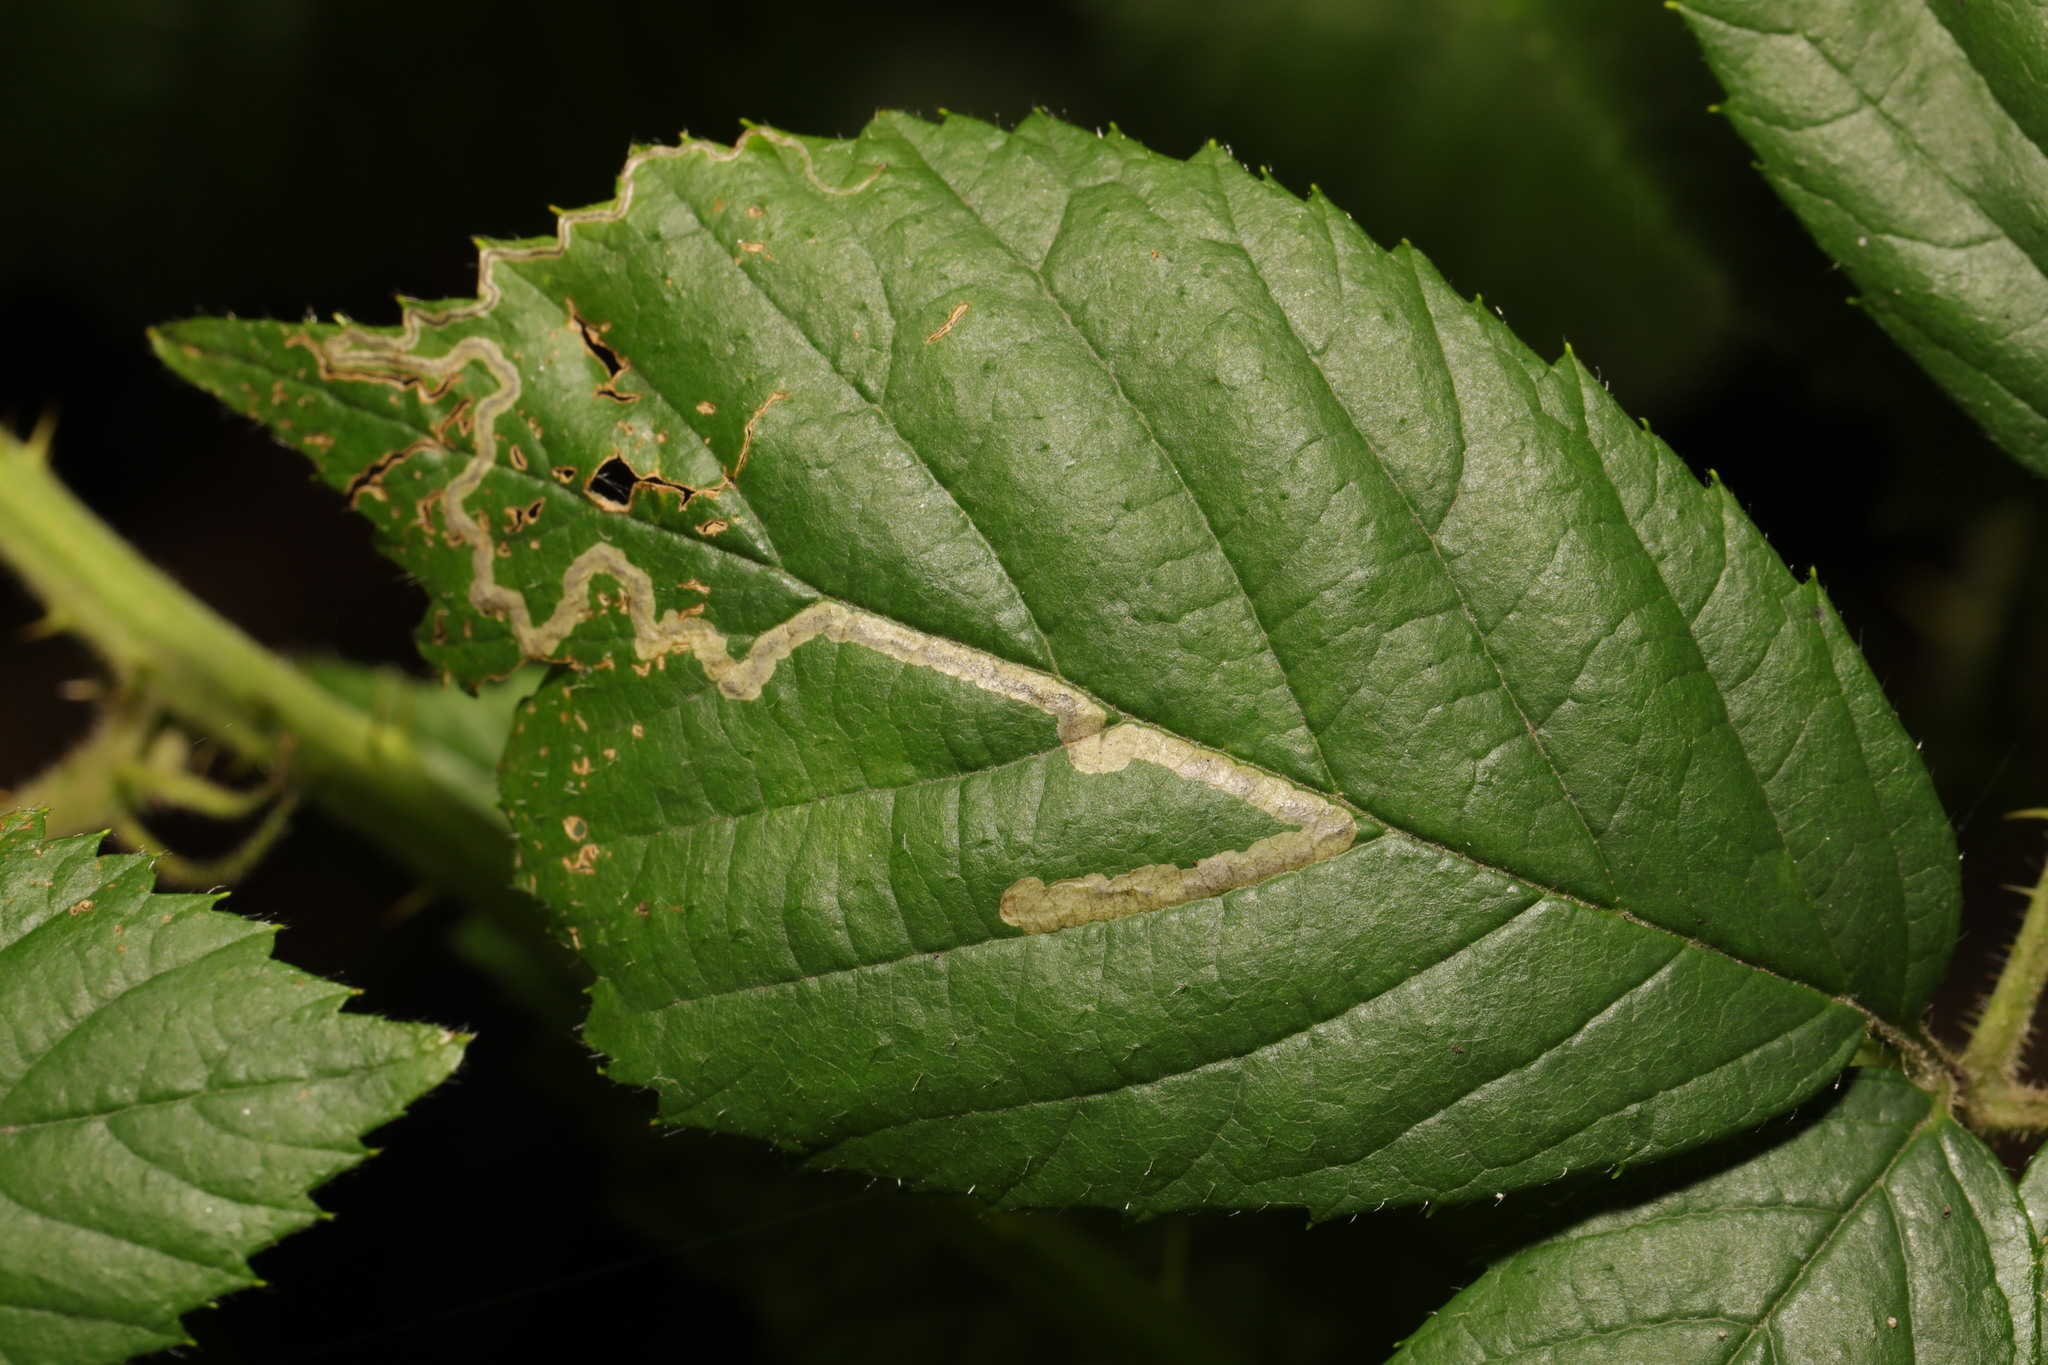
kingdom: Animalia
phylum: Arthropoda
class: Insecta
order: Lepidoptera
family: Nepticulidae
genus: Stigmella
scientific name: Stigmella aurella
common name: Golden pigmy
